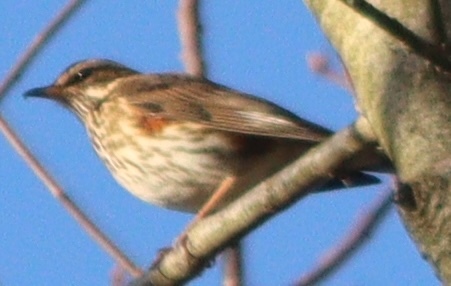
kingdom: Animalia
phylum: Chordata
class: Aves
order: Passeriformes
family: Turdidae
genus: Turdus
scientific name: Turdus iliacus
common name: Redwing
